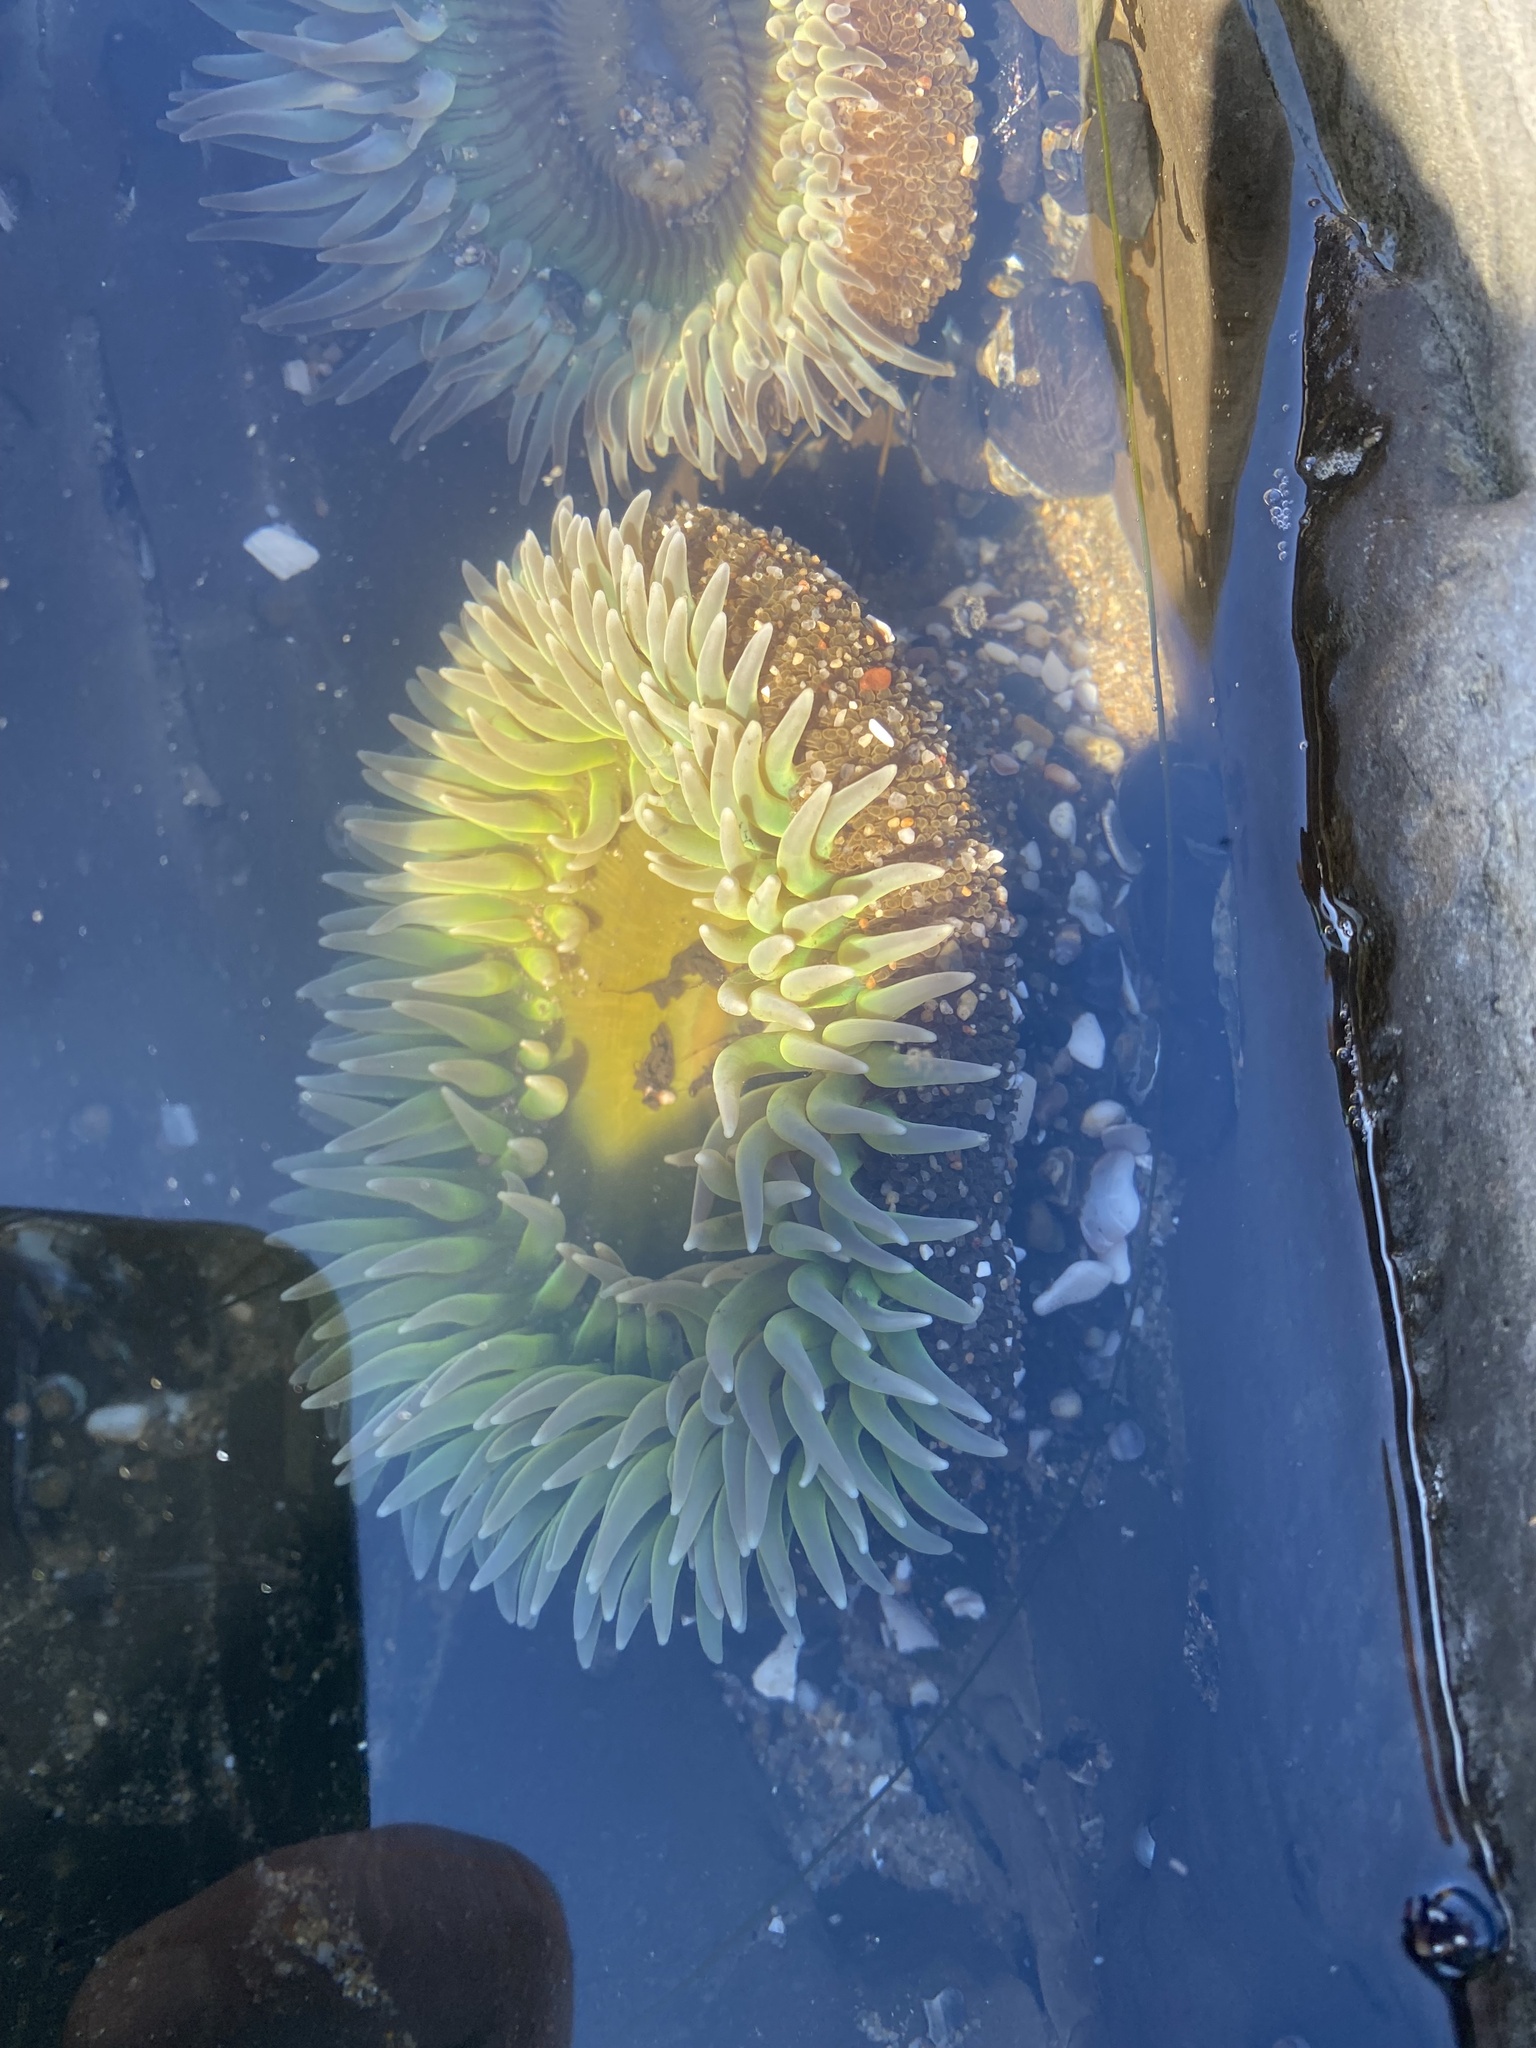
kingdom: Animalia
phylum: Cnidaria
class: Anthozoa
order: Actiniaria
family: Actiniidae
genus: Anthopleura
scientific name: Anthopleura xanthogrammica
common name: Giant green anemone
